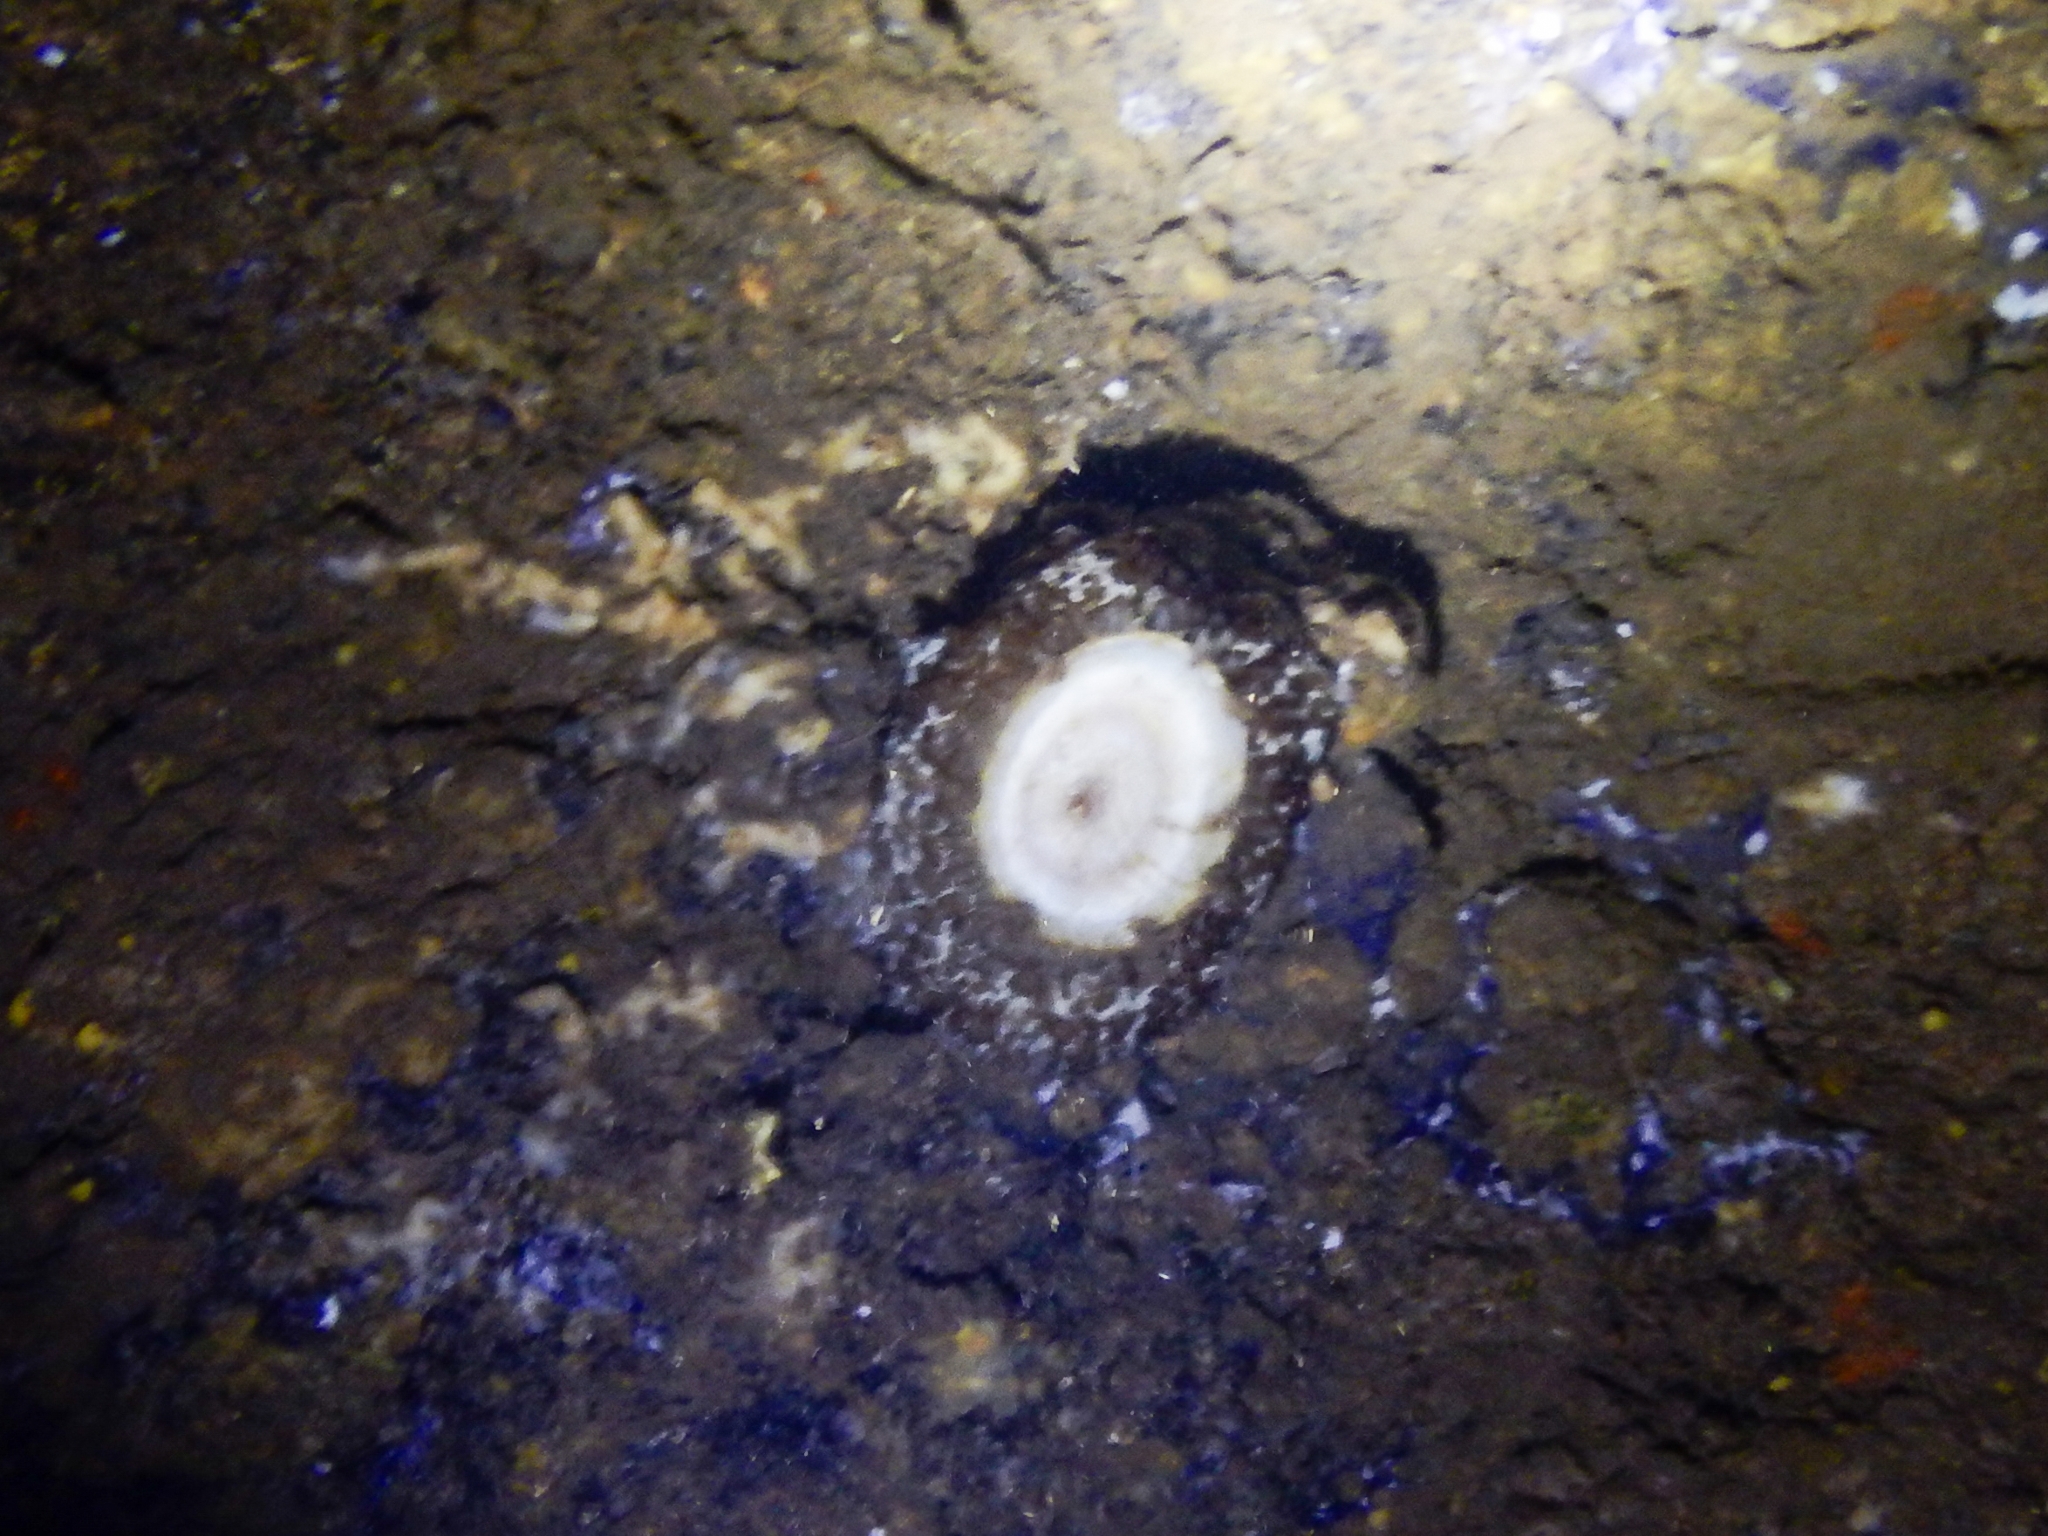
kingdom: Animalia
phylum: Mollusca
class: Gastropoda
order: Umbraculida
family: Umbraculidae
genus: Umbraculum
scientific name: Umbraculum umbraculum
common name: Atlantic umbrella slug
